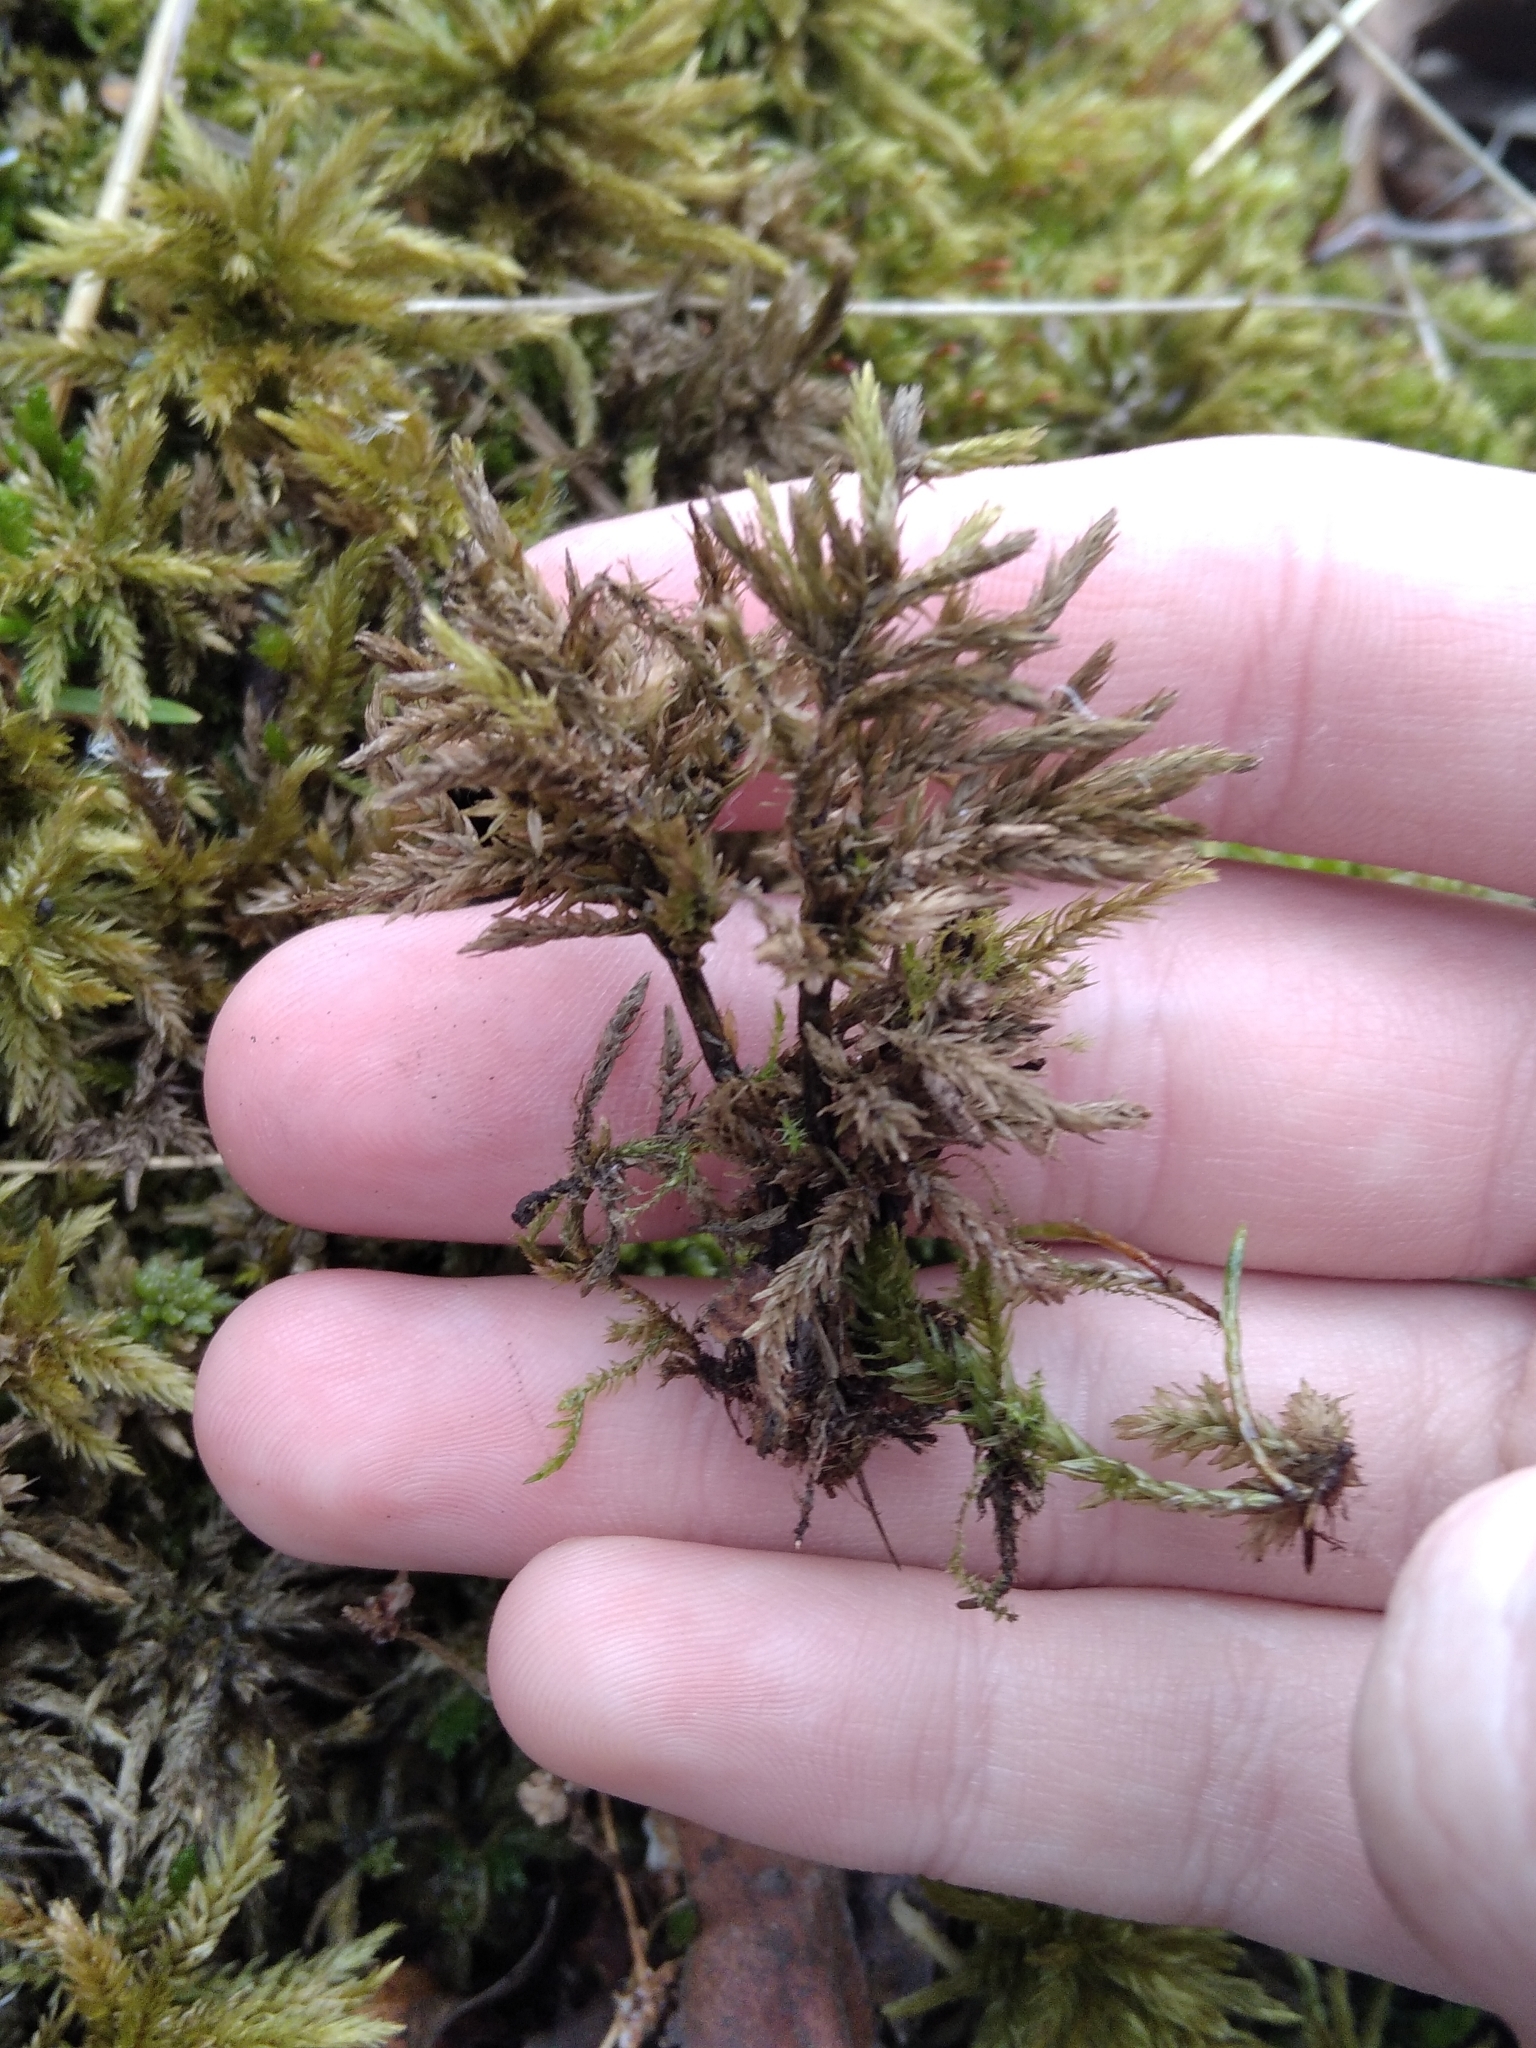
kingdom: Plantae
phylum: Bryophyta
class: Bryopsida
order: Hypnales
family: Climaciaceae
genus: Climacium
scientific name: Climacium dendroides
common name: Northern tree moss
